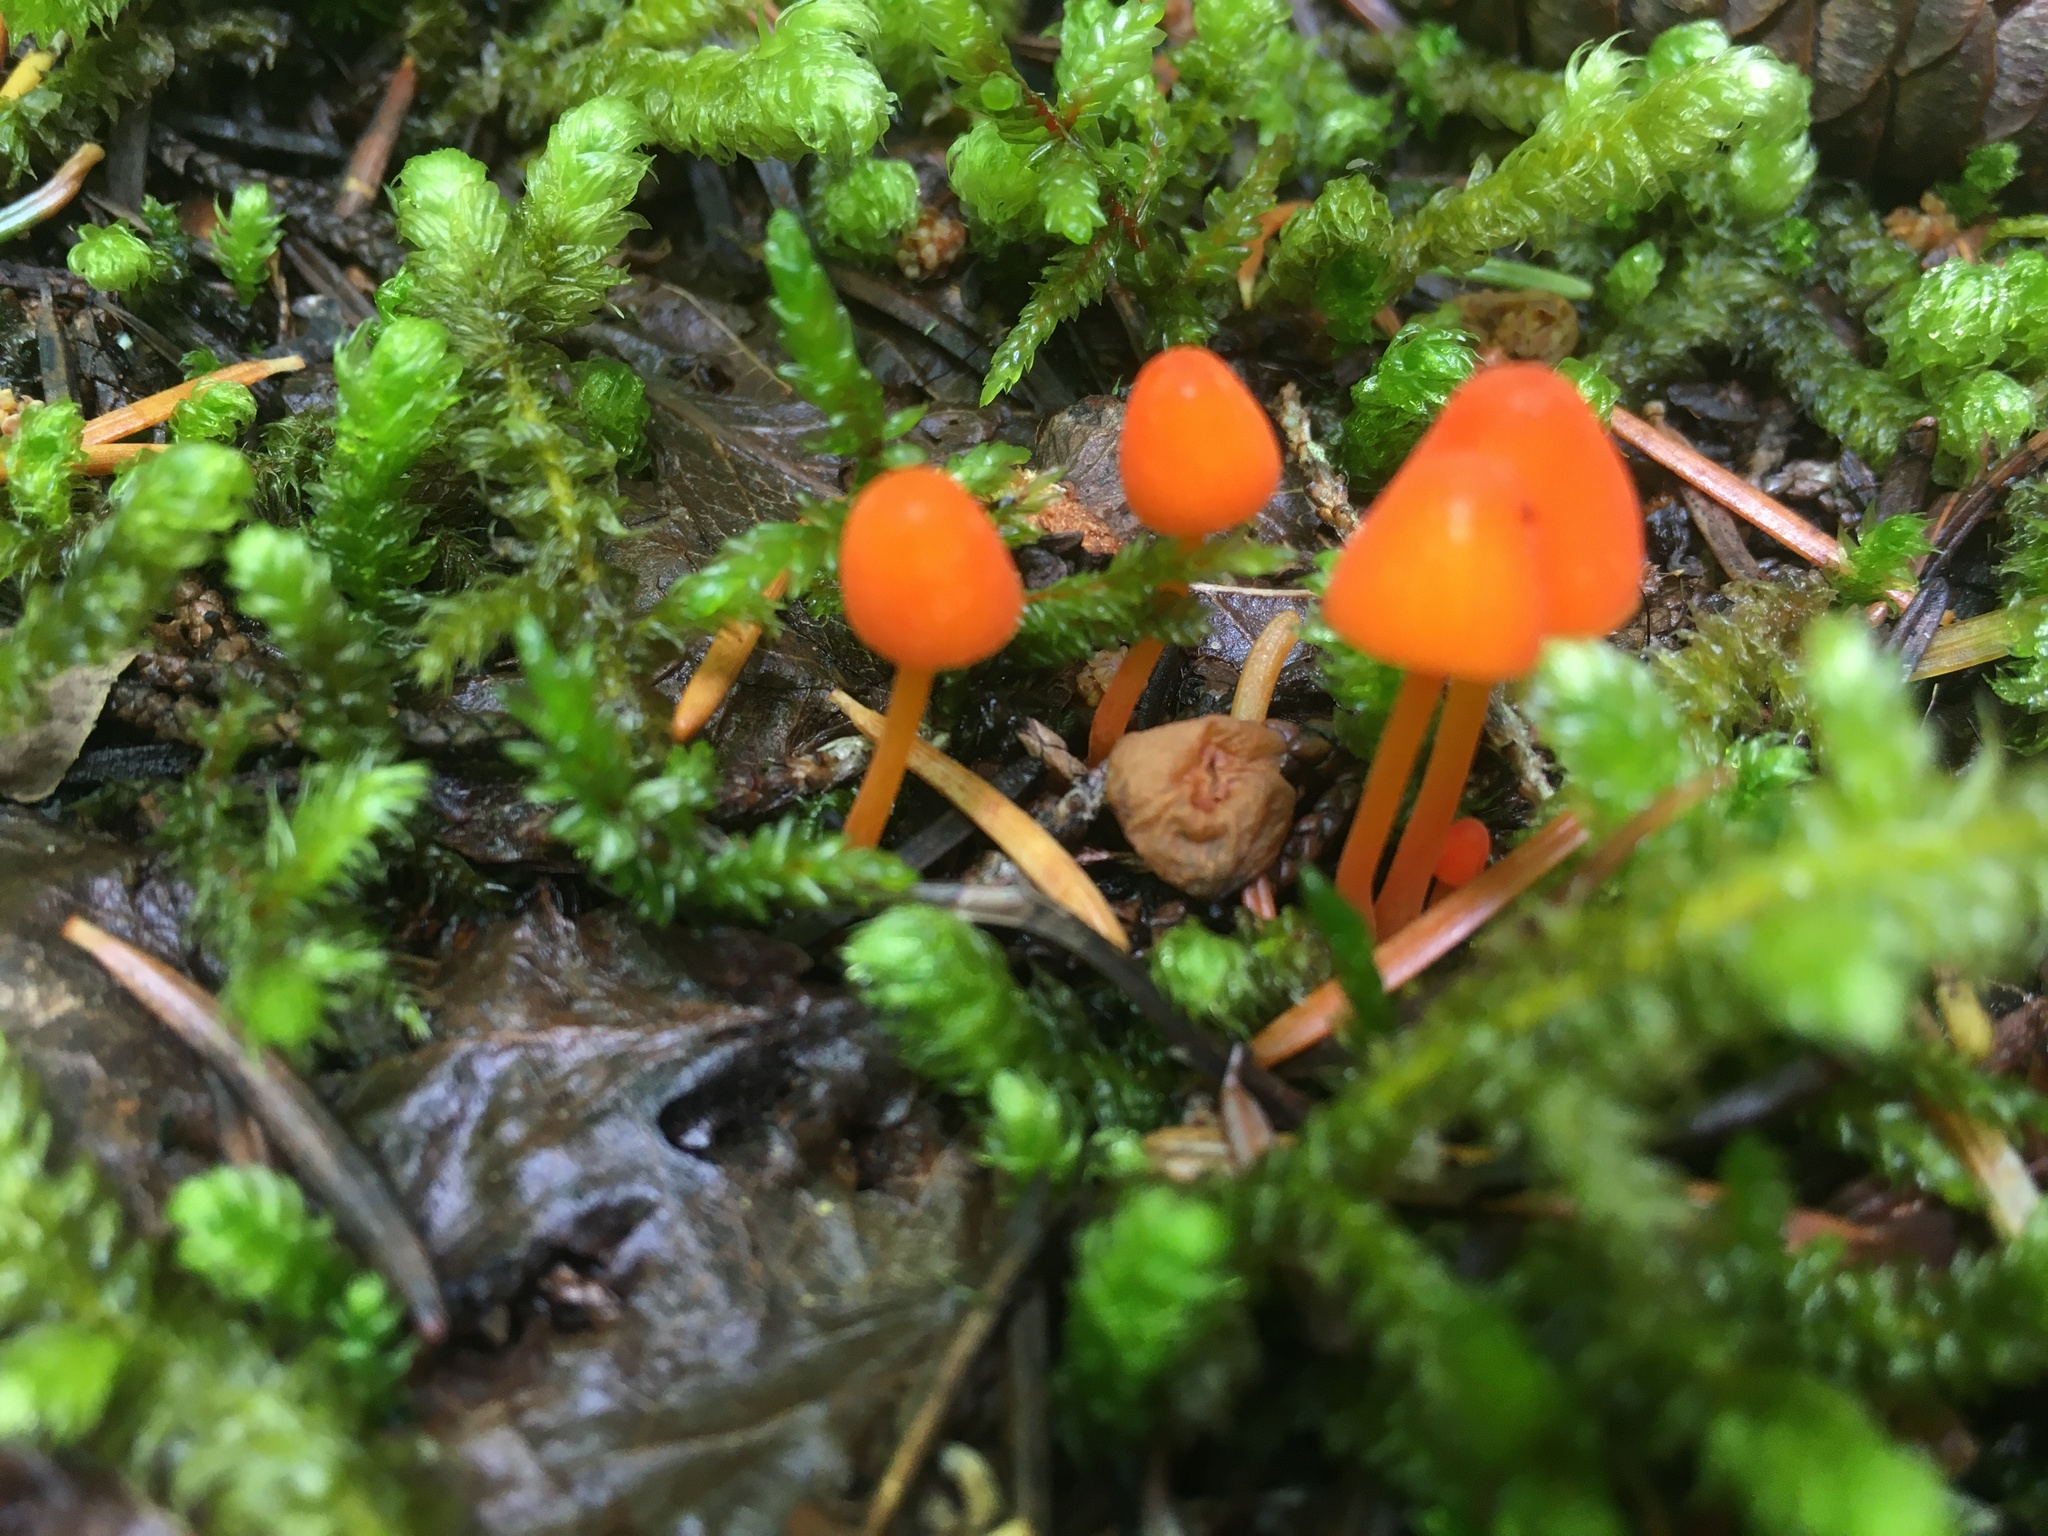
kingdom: Fungi
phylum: Basidiomycota
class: Agaricomycetes
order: Agaricales
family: Mycenaceae
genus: Mycena
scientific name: Mycena strobilinoidea
